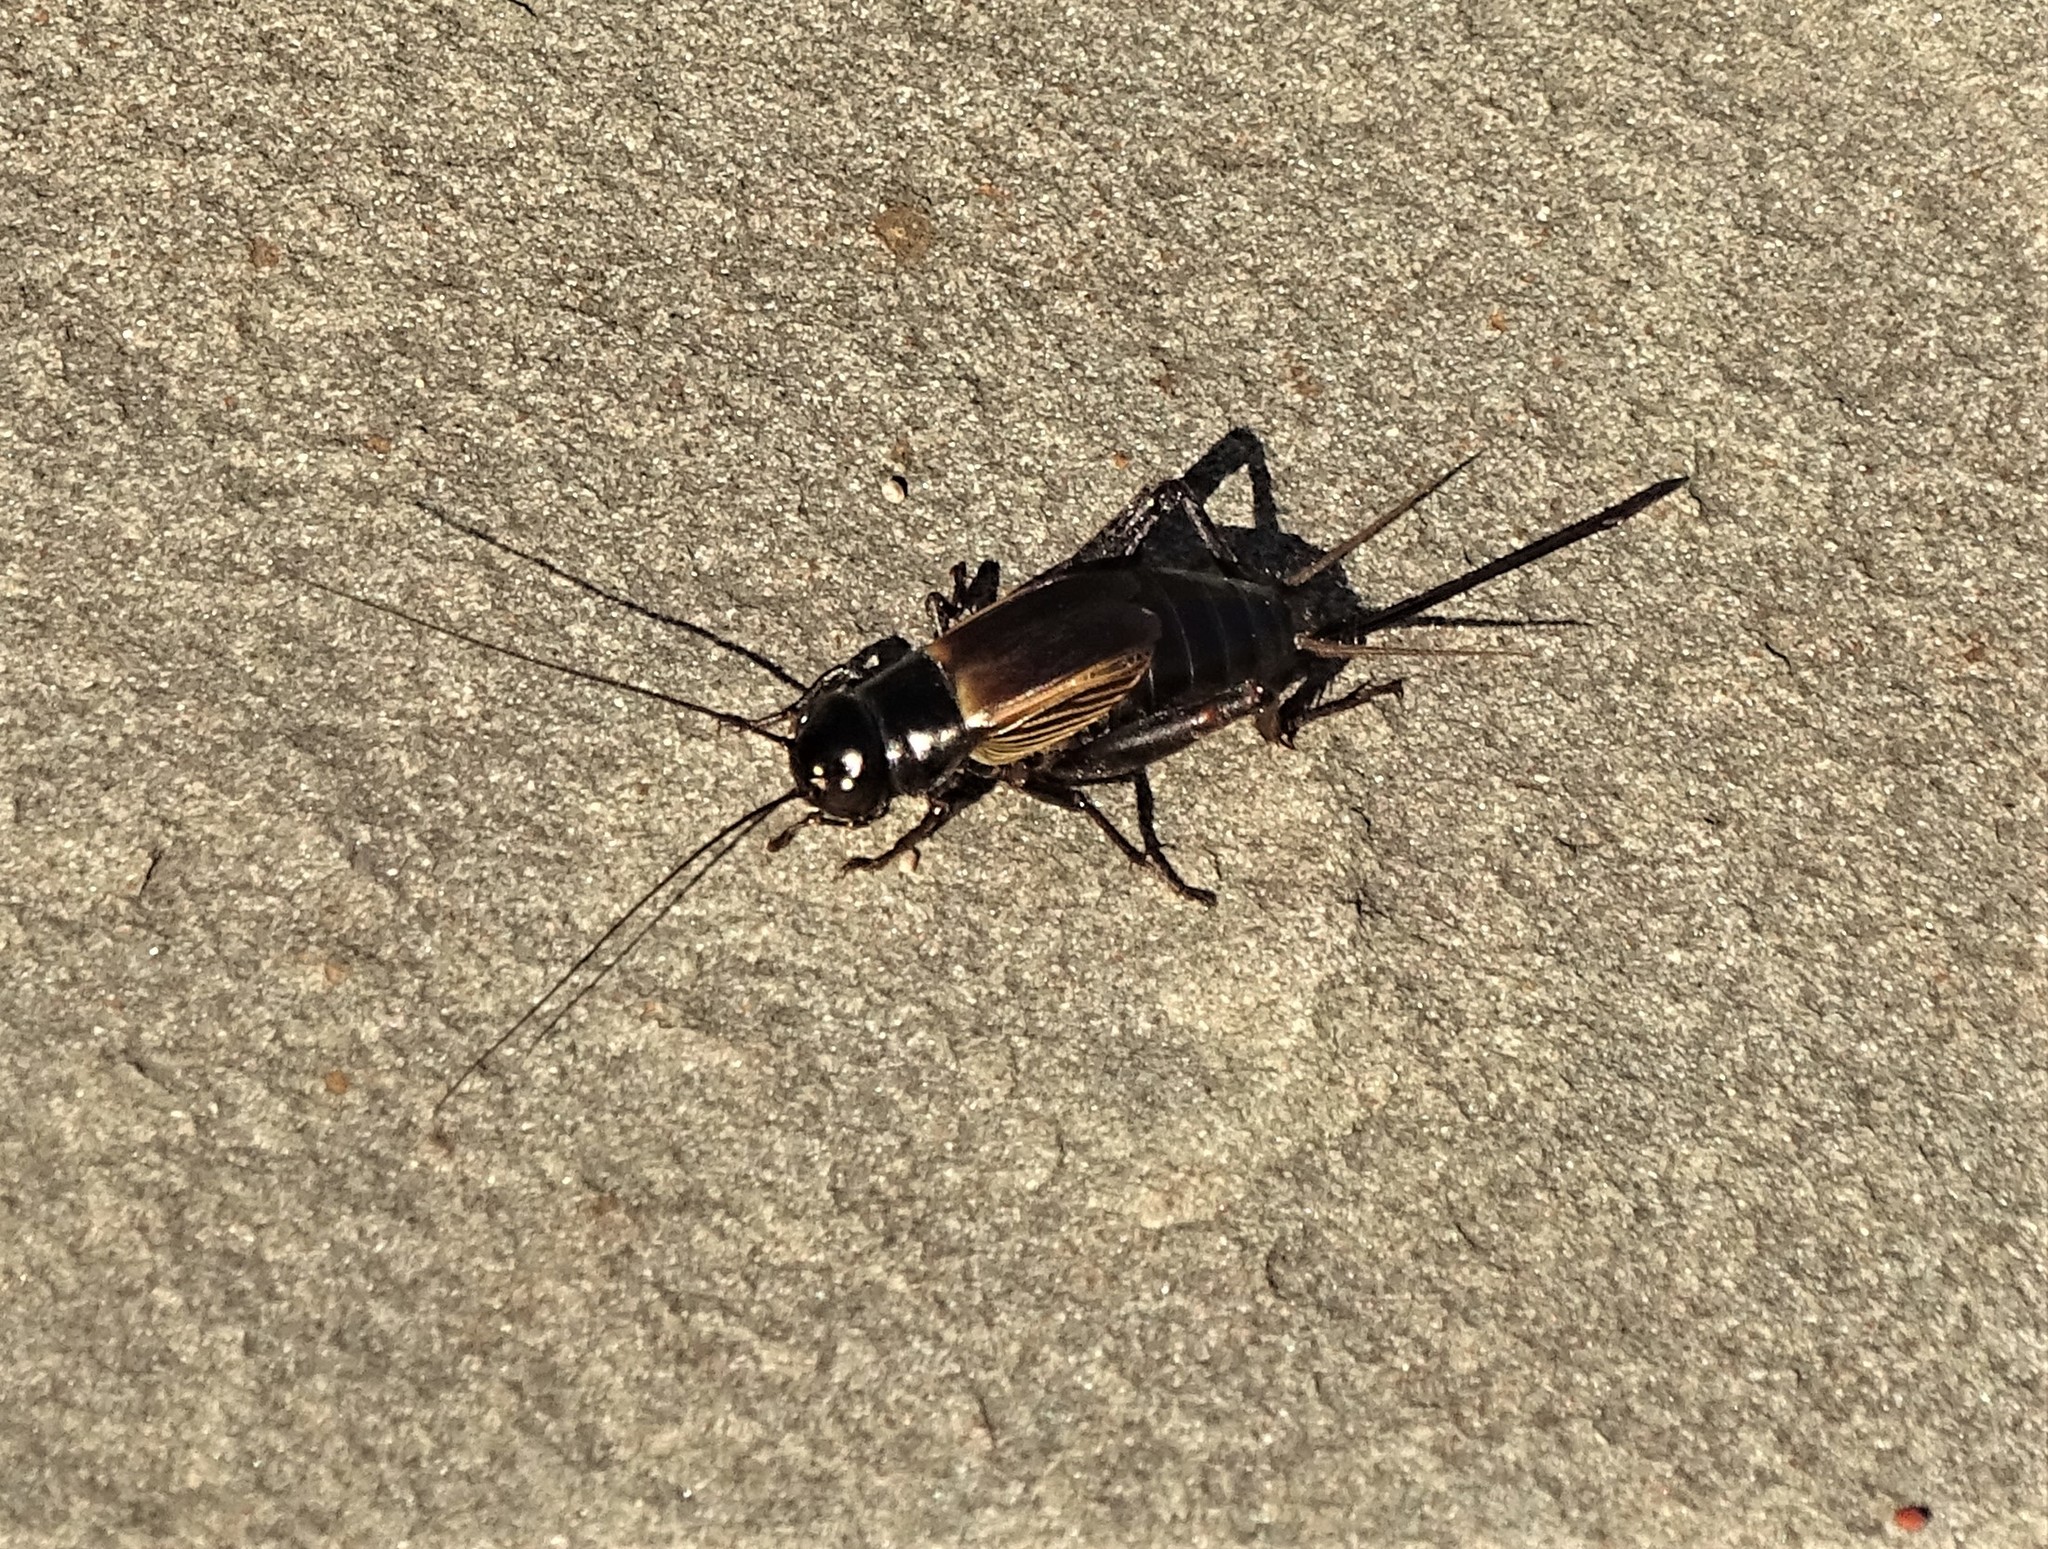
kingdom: Animalia
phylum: Arthropoda
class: Insecta
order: Orthoptera
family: Gryllidae
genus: Gryllus
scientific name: Gryllus pennsylvanicus
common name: Fall field cricket
